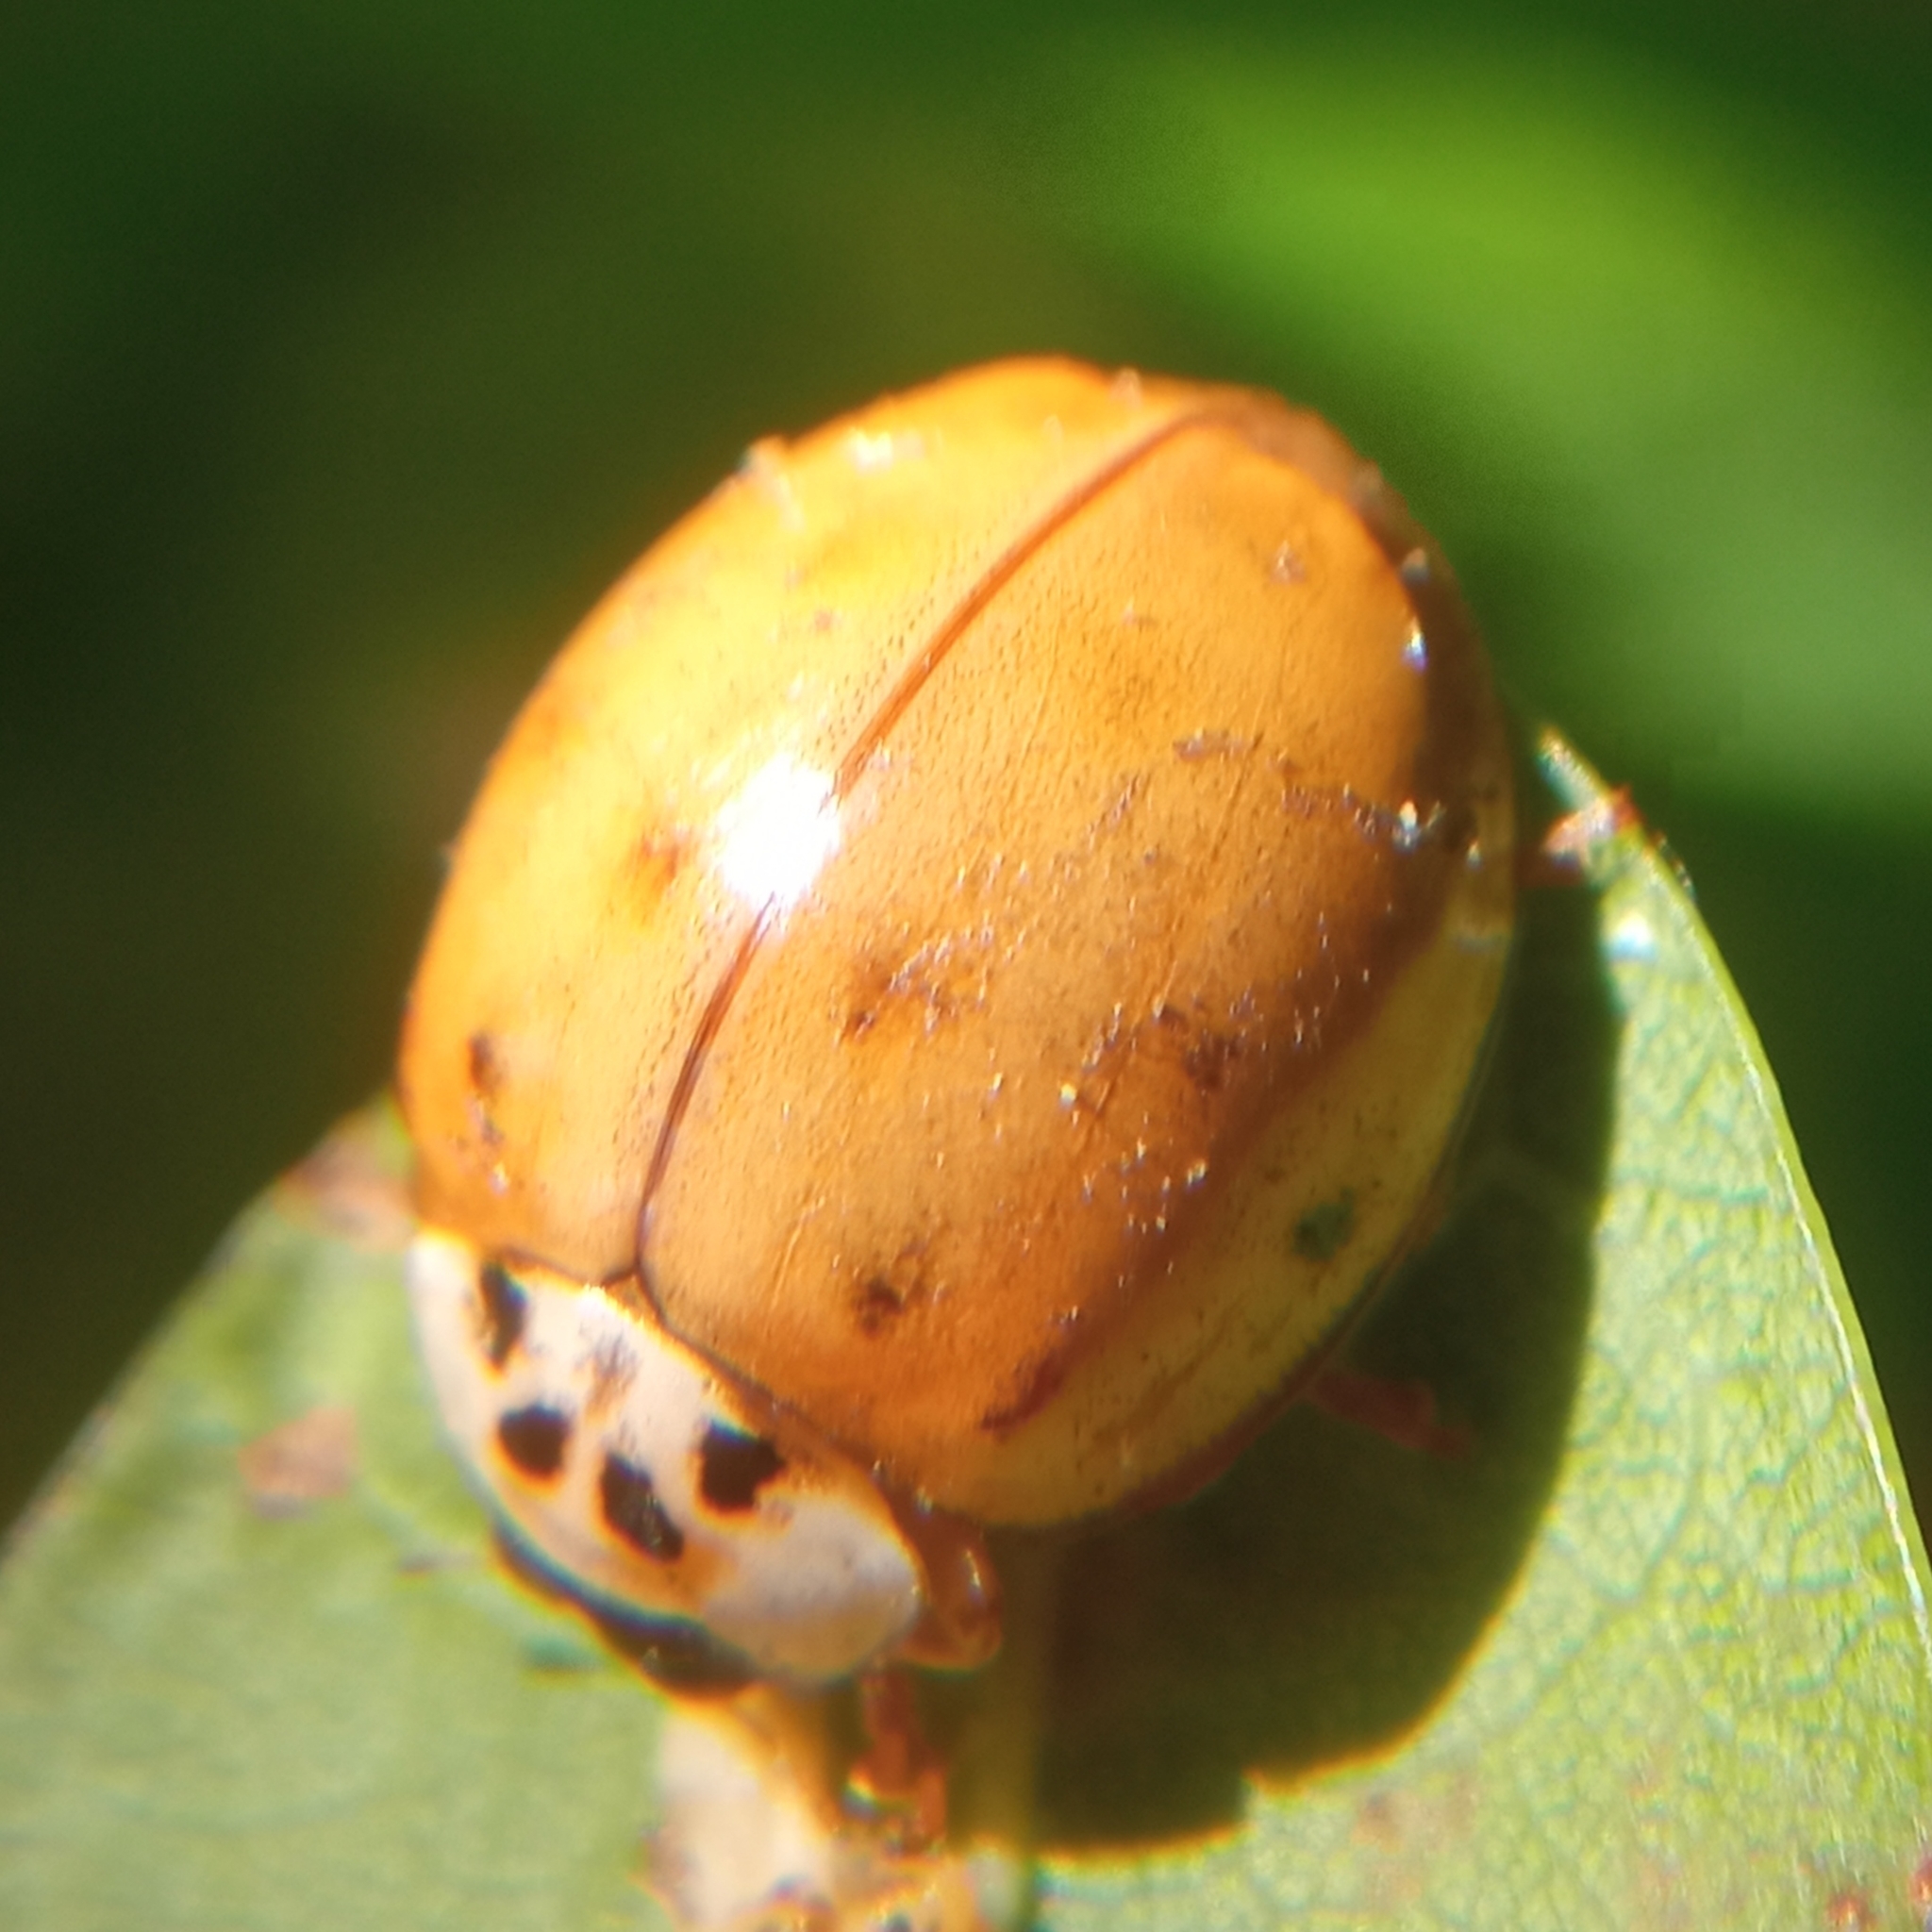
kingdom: Animalia
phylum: Arthropoda
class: Insecta
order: Coleoptera
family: Coccinellidae
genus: Harmonia
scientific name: Harmonia axyridis
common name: Harlequin ladybird
